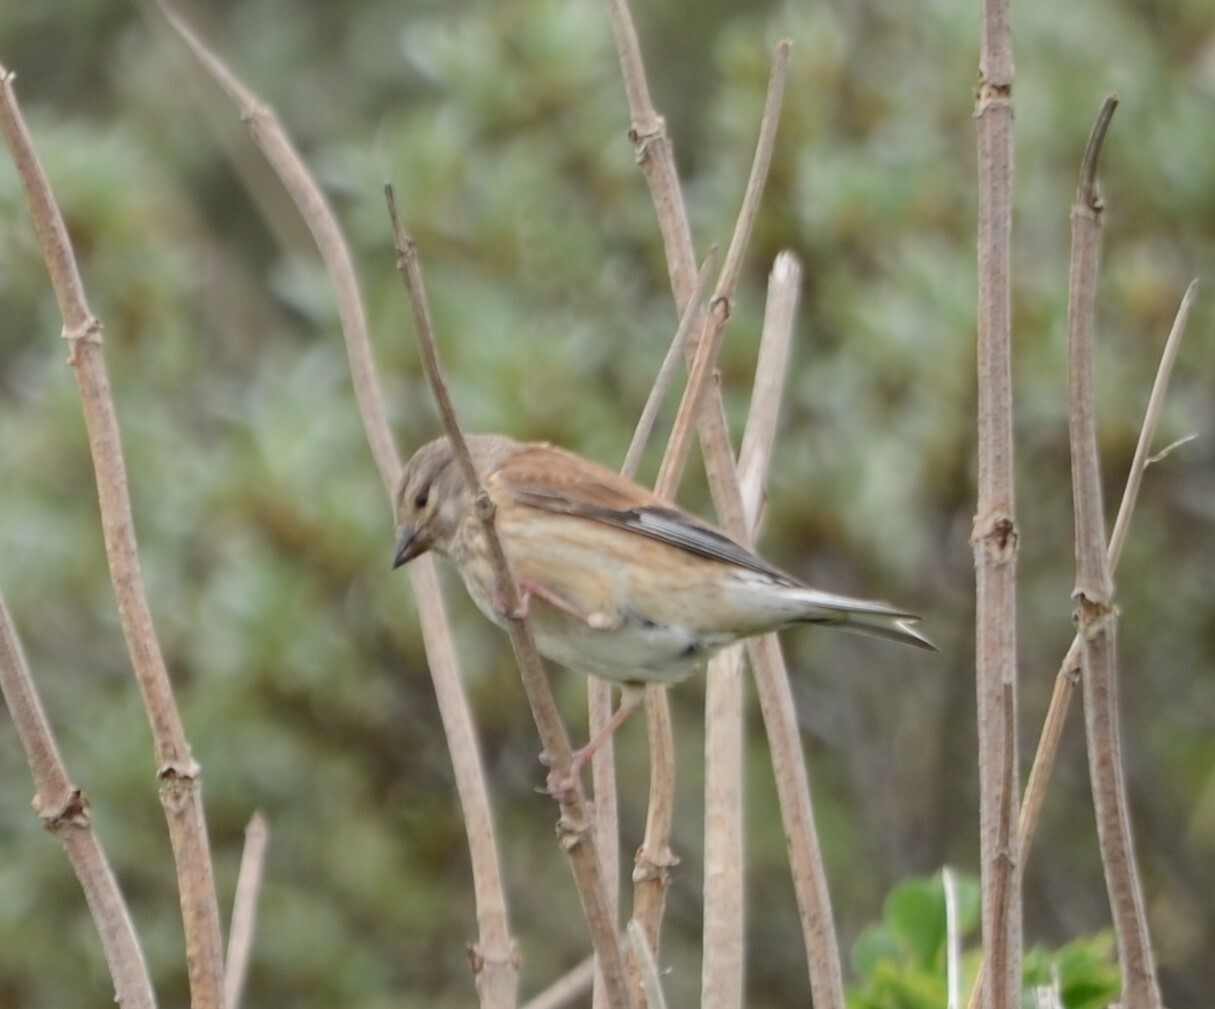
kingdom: Animalia
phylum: Chordata
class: Aves
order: Passeriformes
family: Fringillidae
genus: Linaria
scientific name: Linaria cannabina
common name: Common linnet
